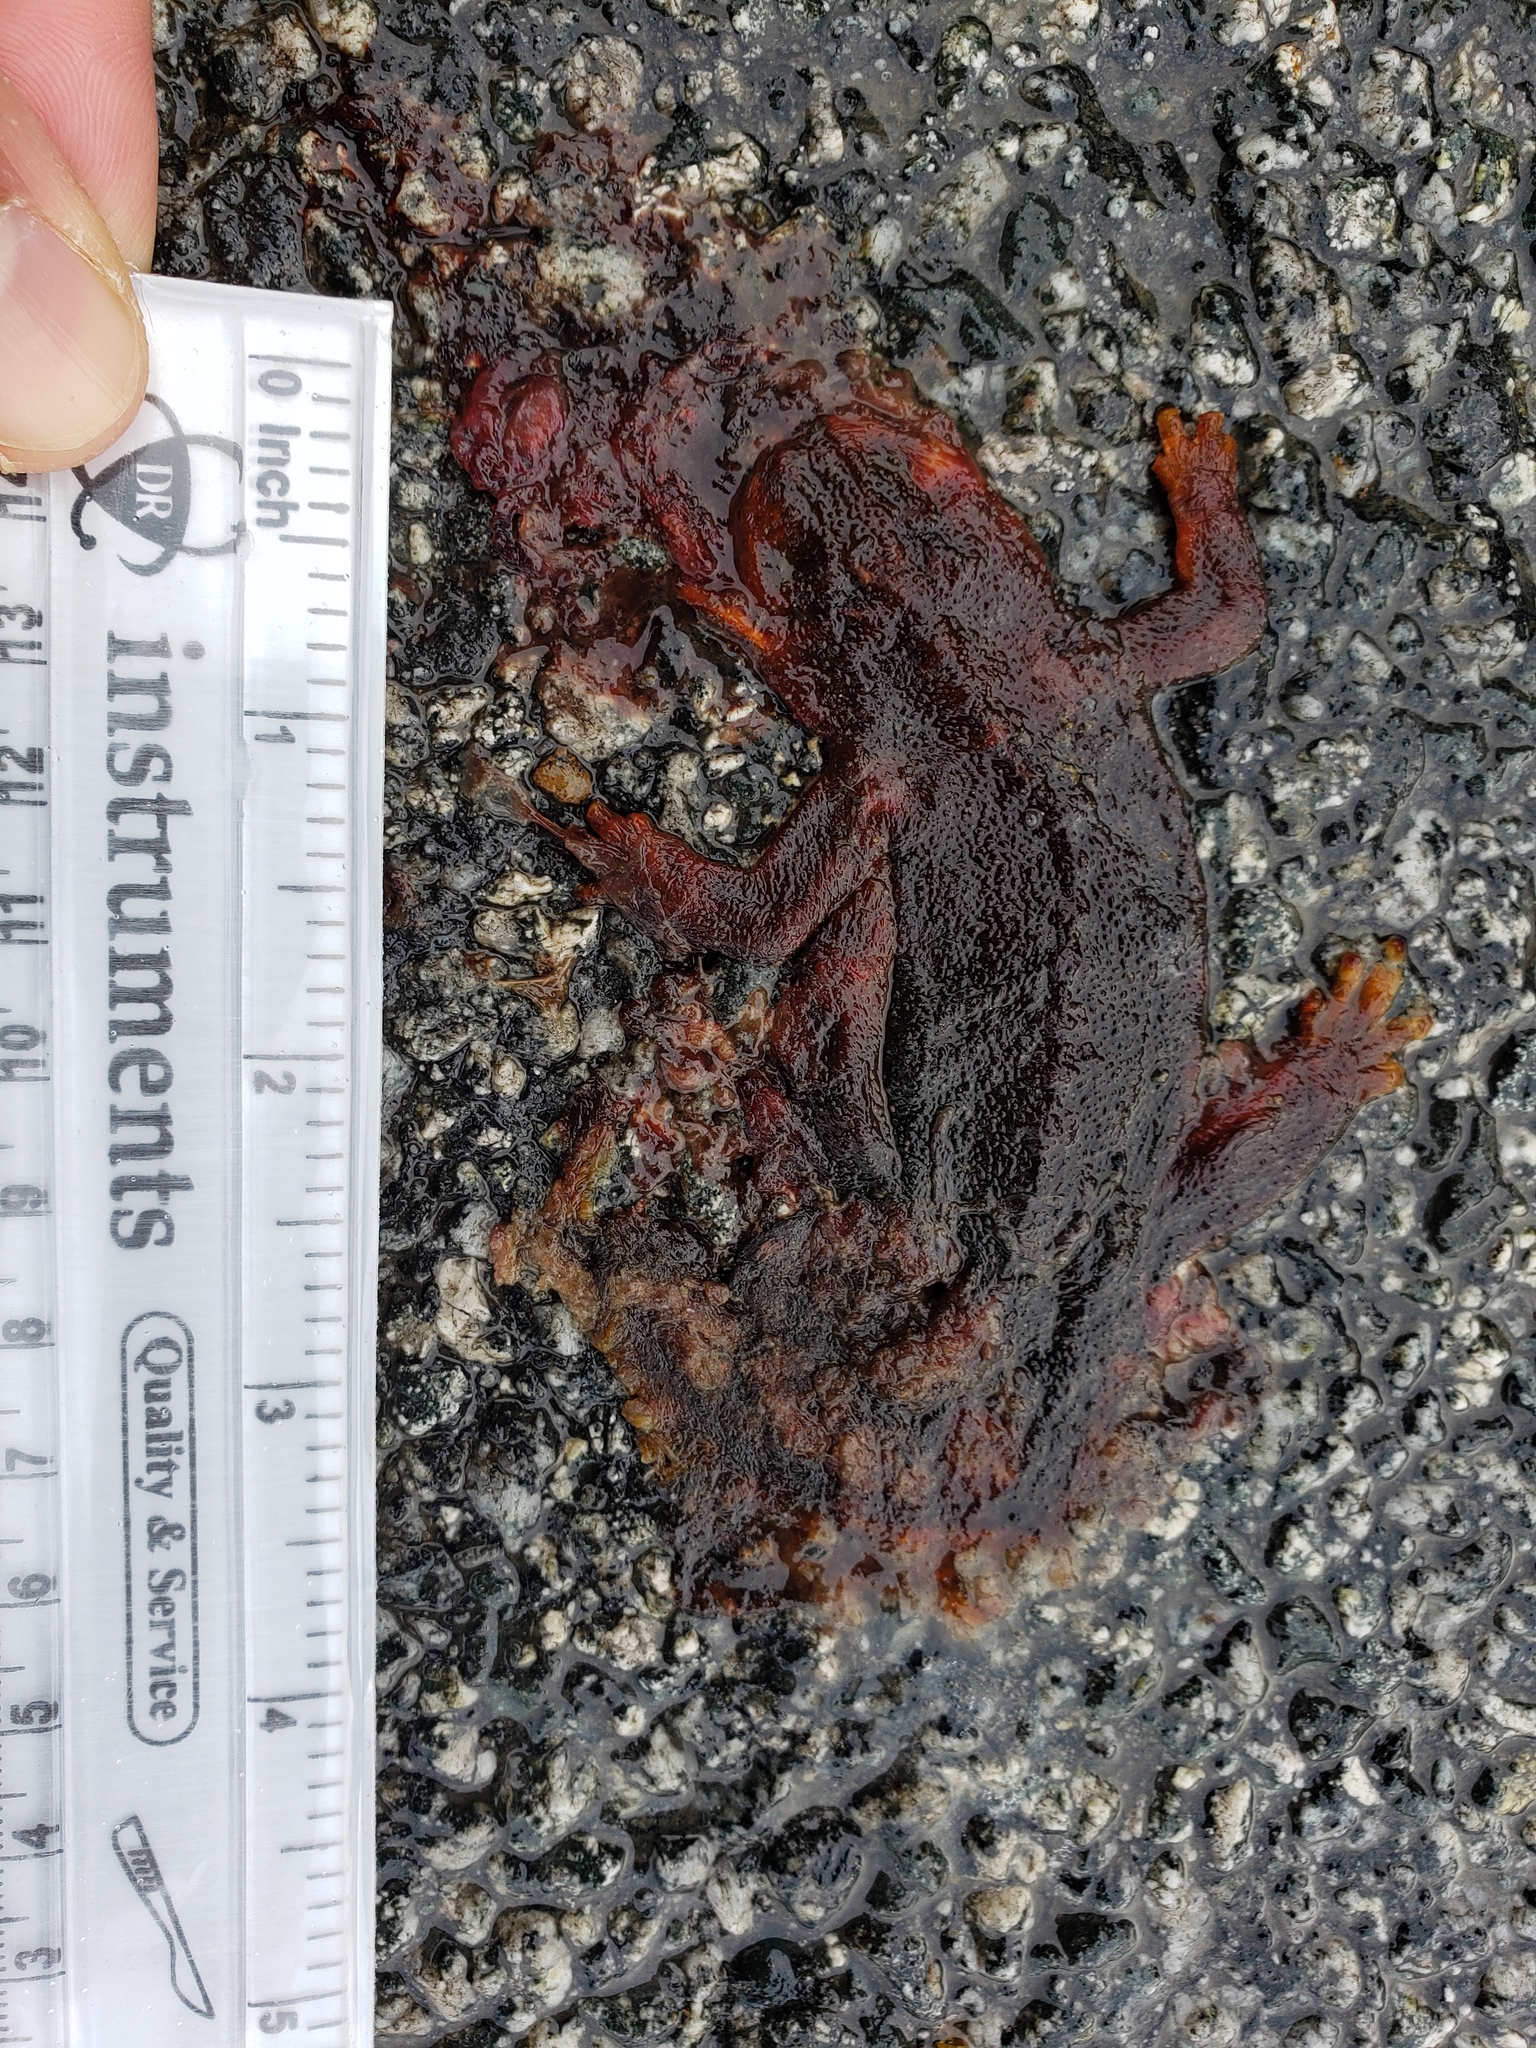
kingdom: Animalia
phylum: Chordata
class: Amphibia
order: Caudata
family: Salamandridae
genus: Taricha
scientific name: Taricha
